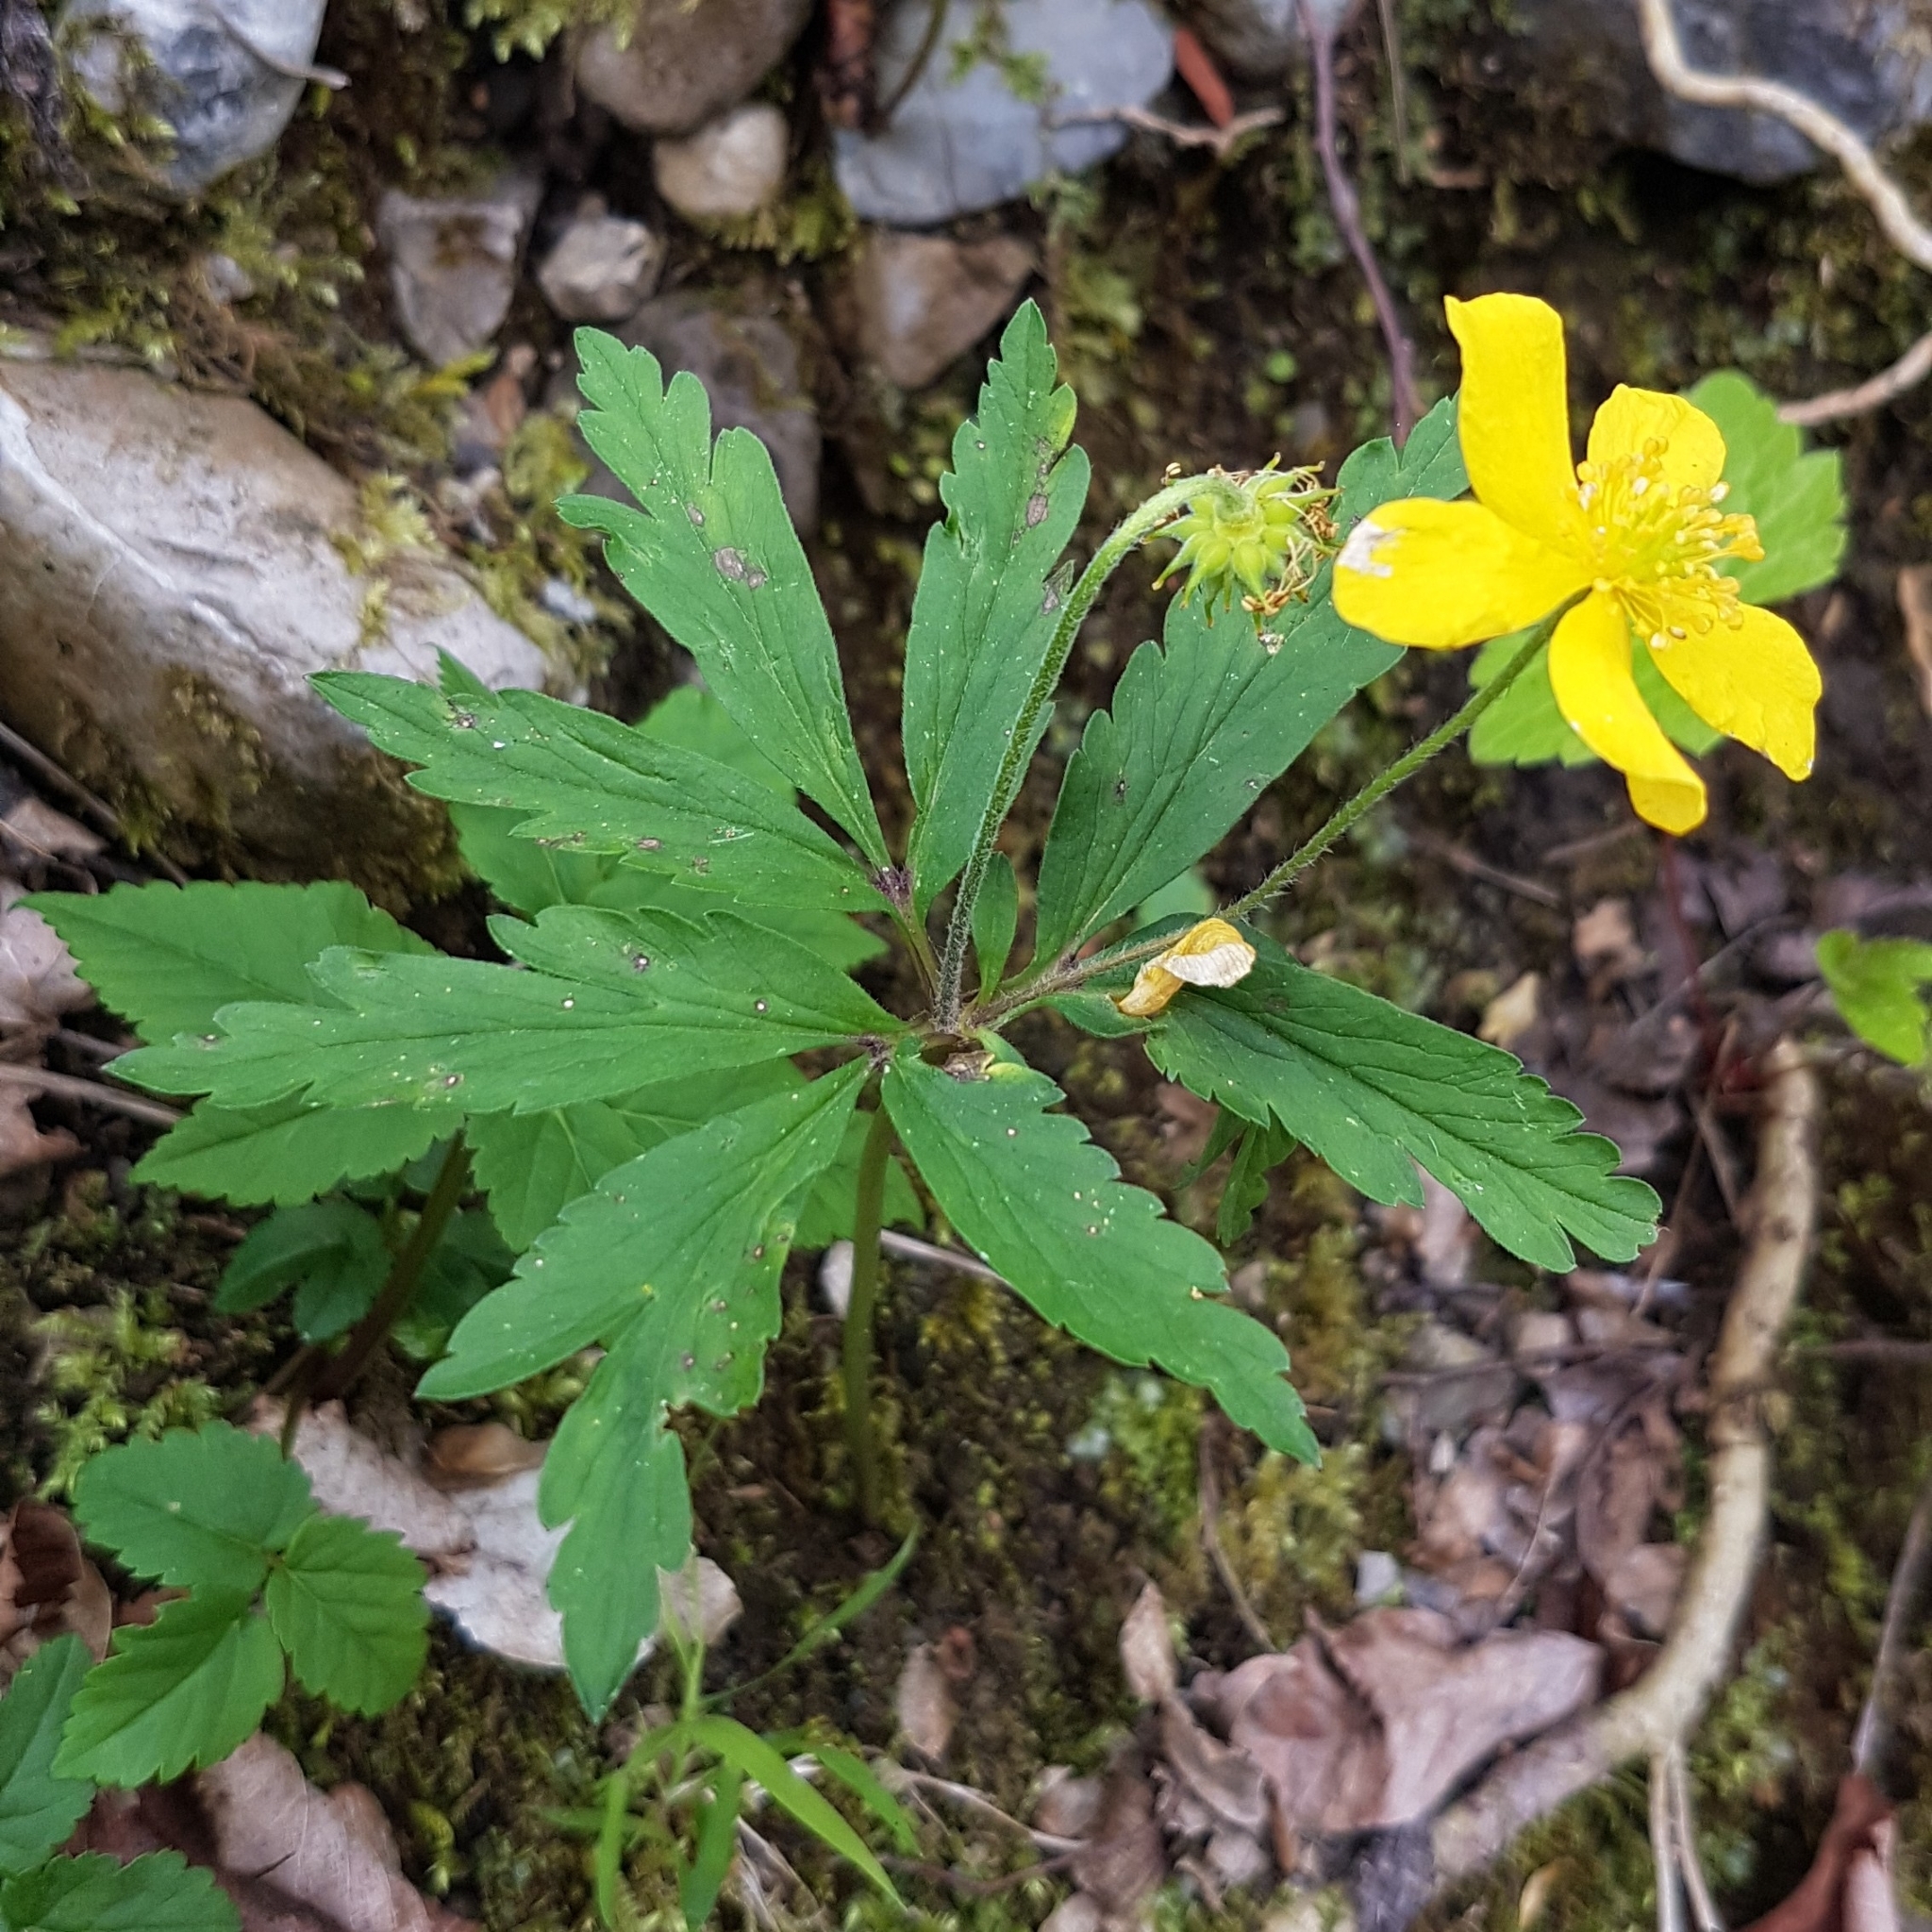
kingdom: Plantae
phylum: Tracheophyta
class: Magnoliopsida
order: Ranunculales
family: Ranunculaceae
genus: Anemone
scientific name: Anemone ranunculoides
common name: Yellow anemone
